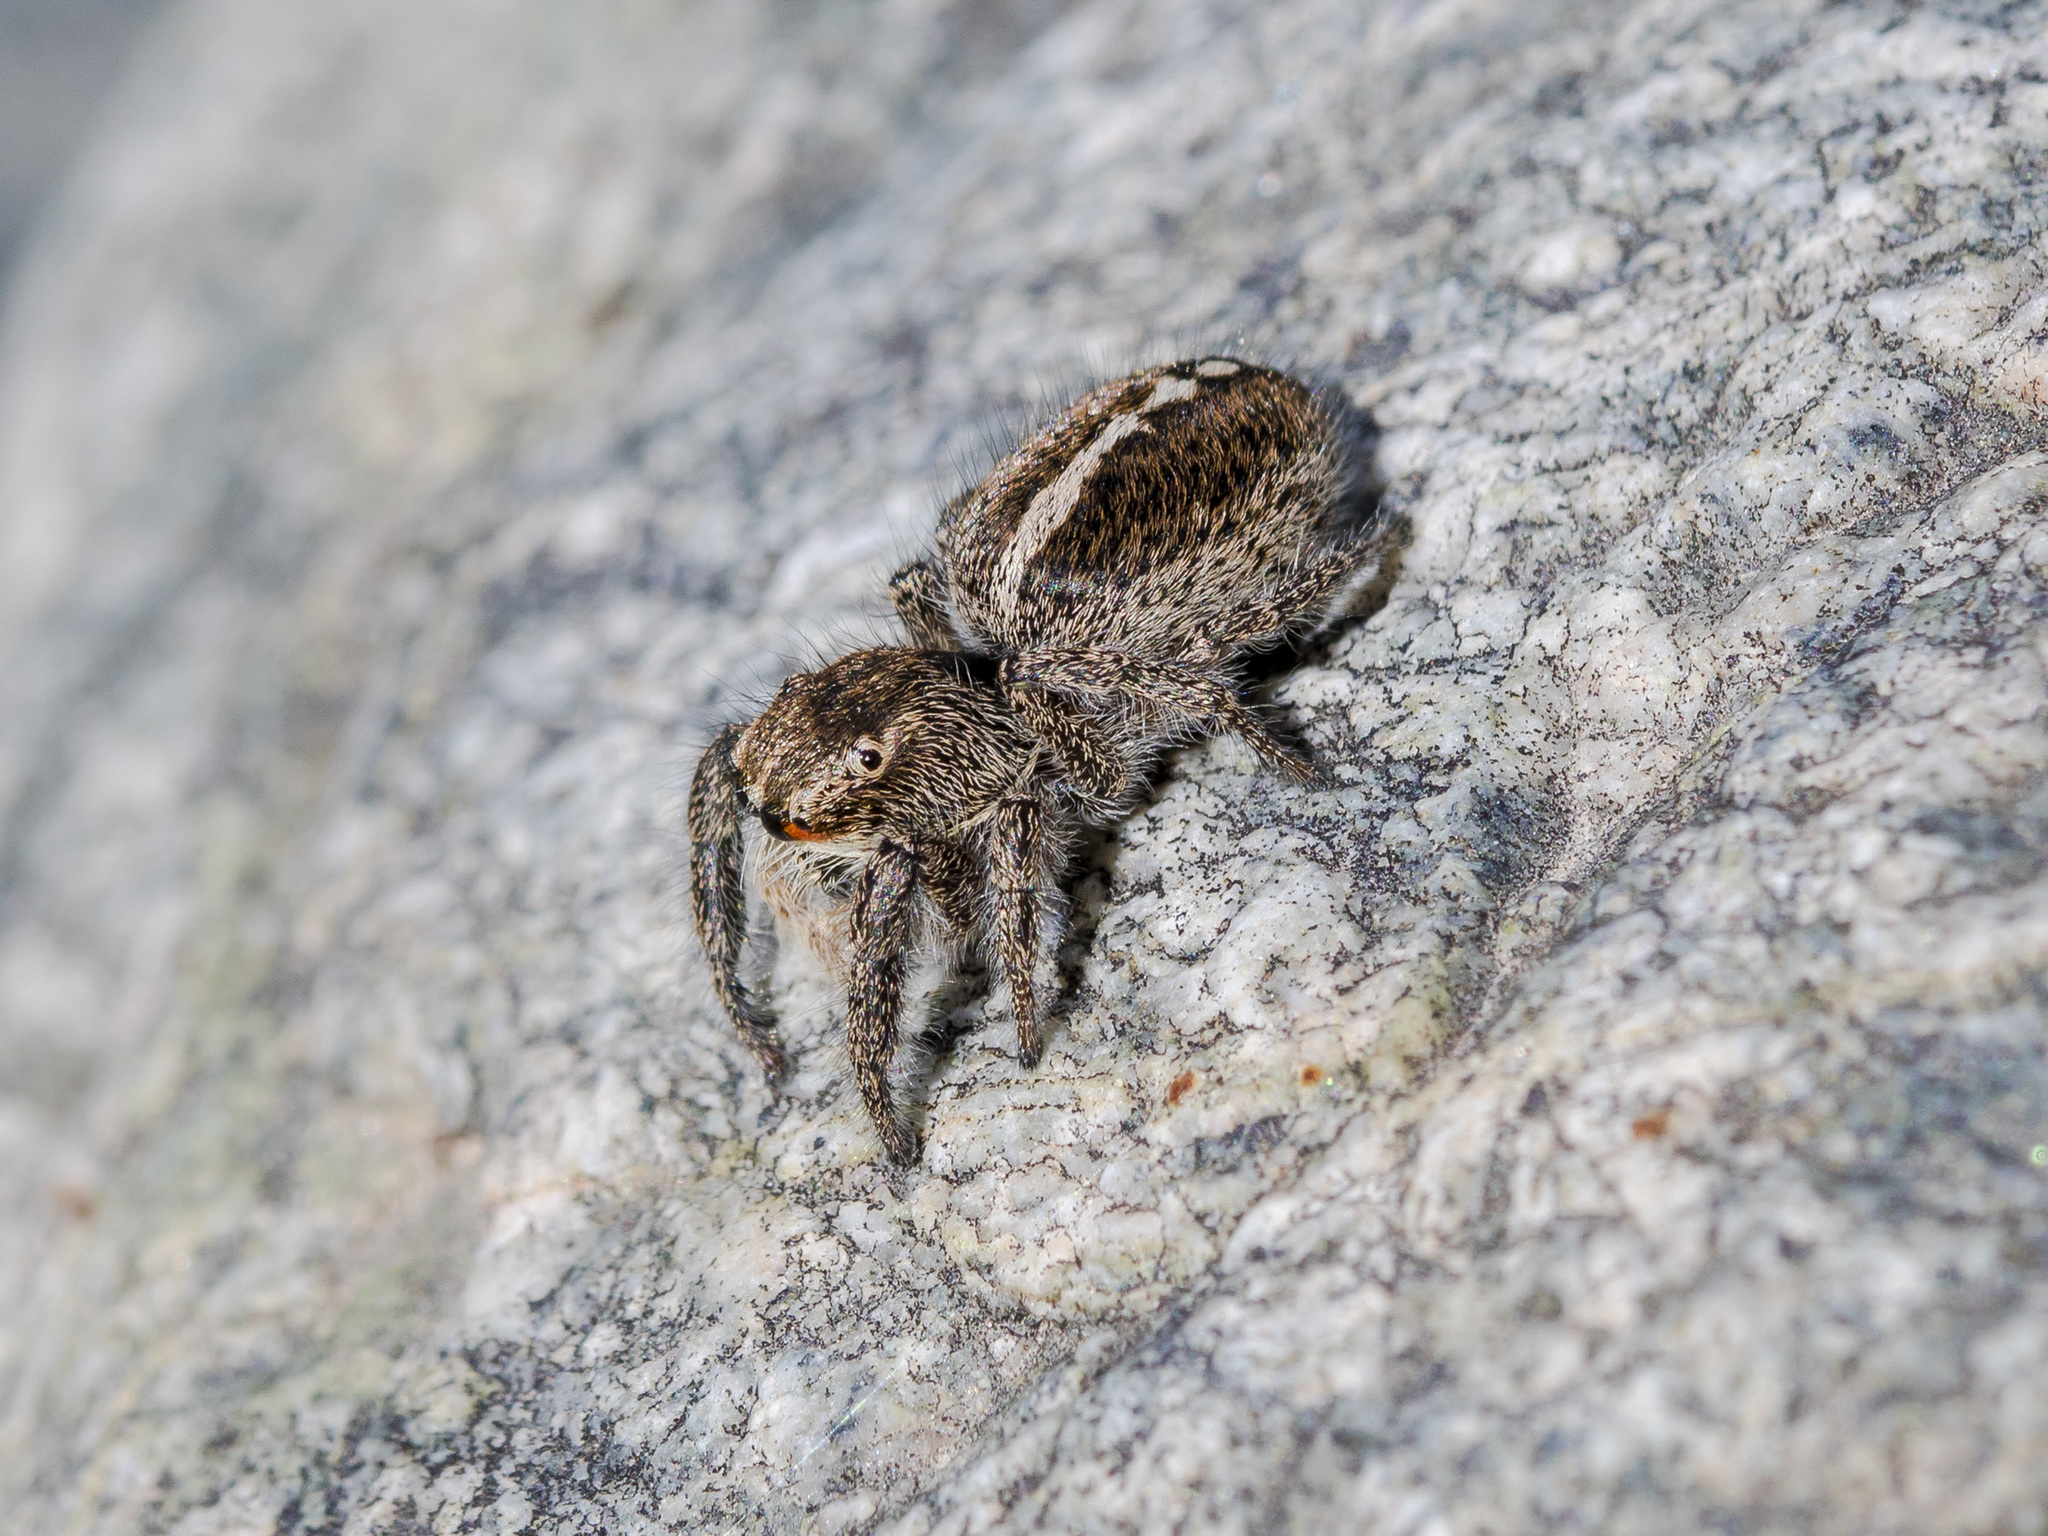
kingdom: Animalia
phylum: Arthropoda
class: Arachnida
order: Araneae
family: Salticidae
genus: Pellenes
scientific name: Pellenes seriatus
